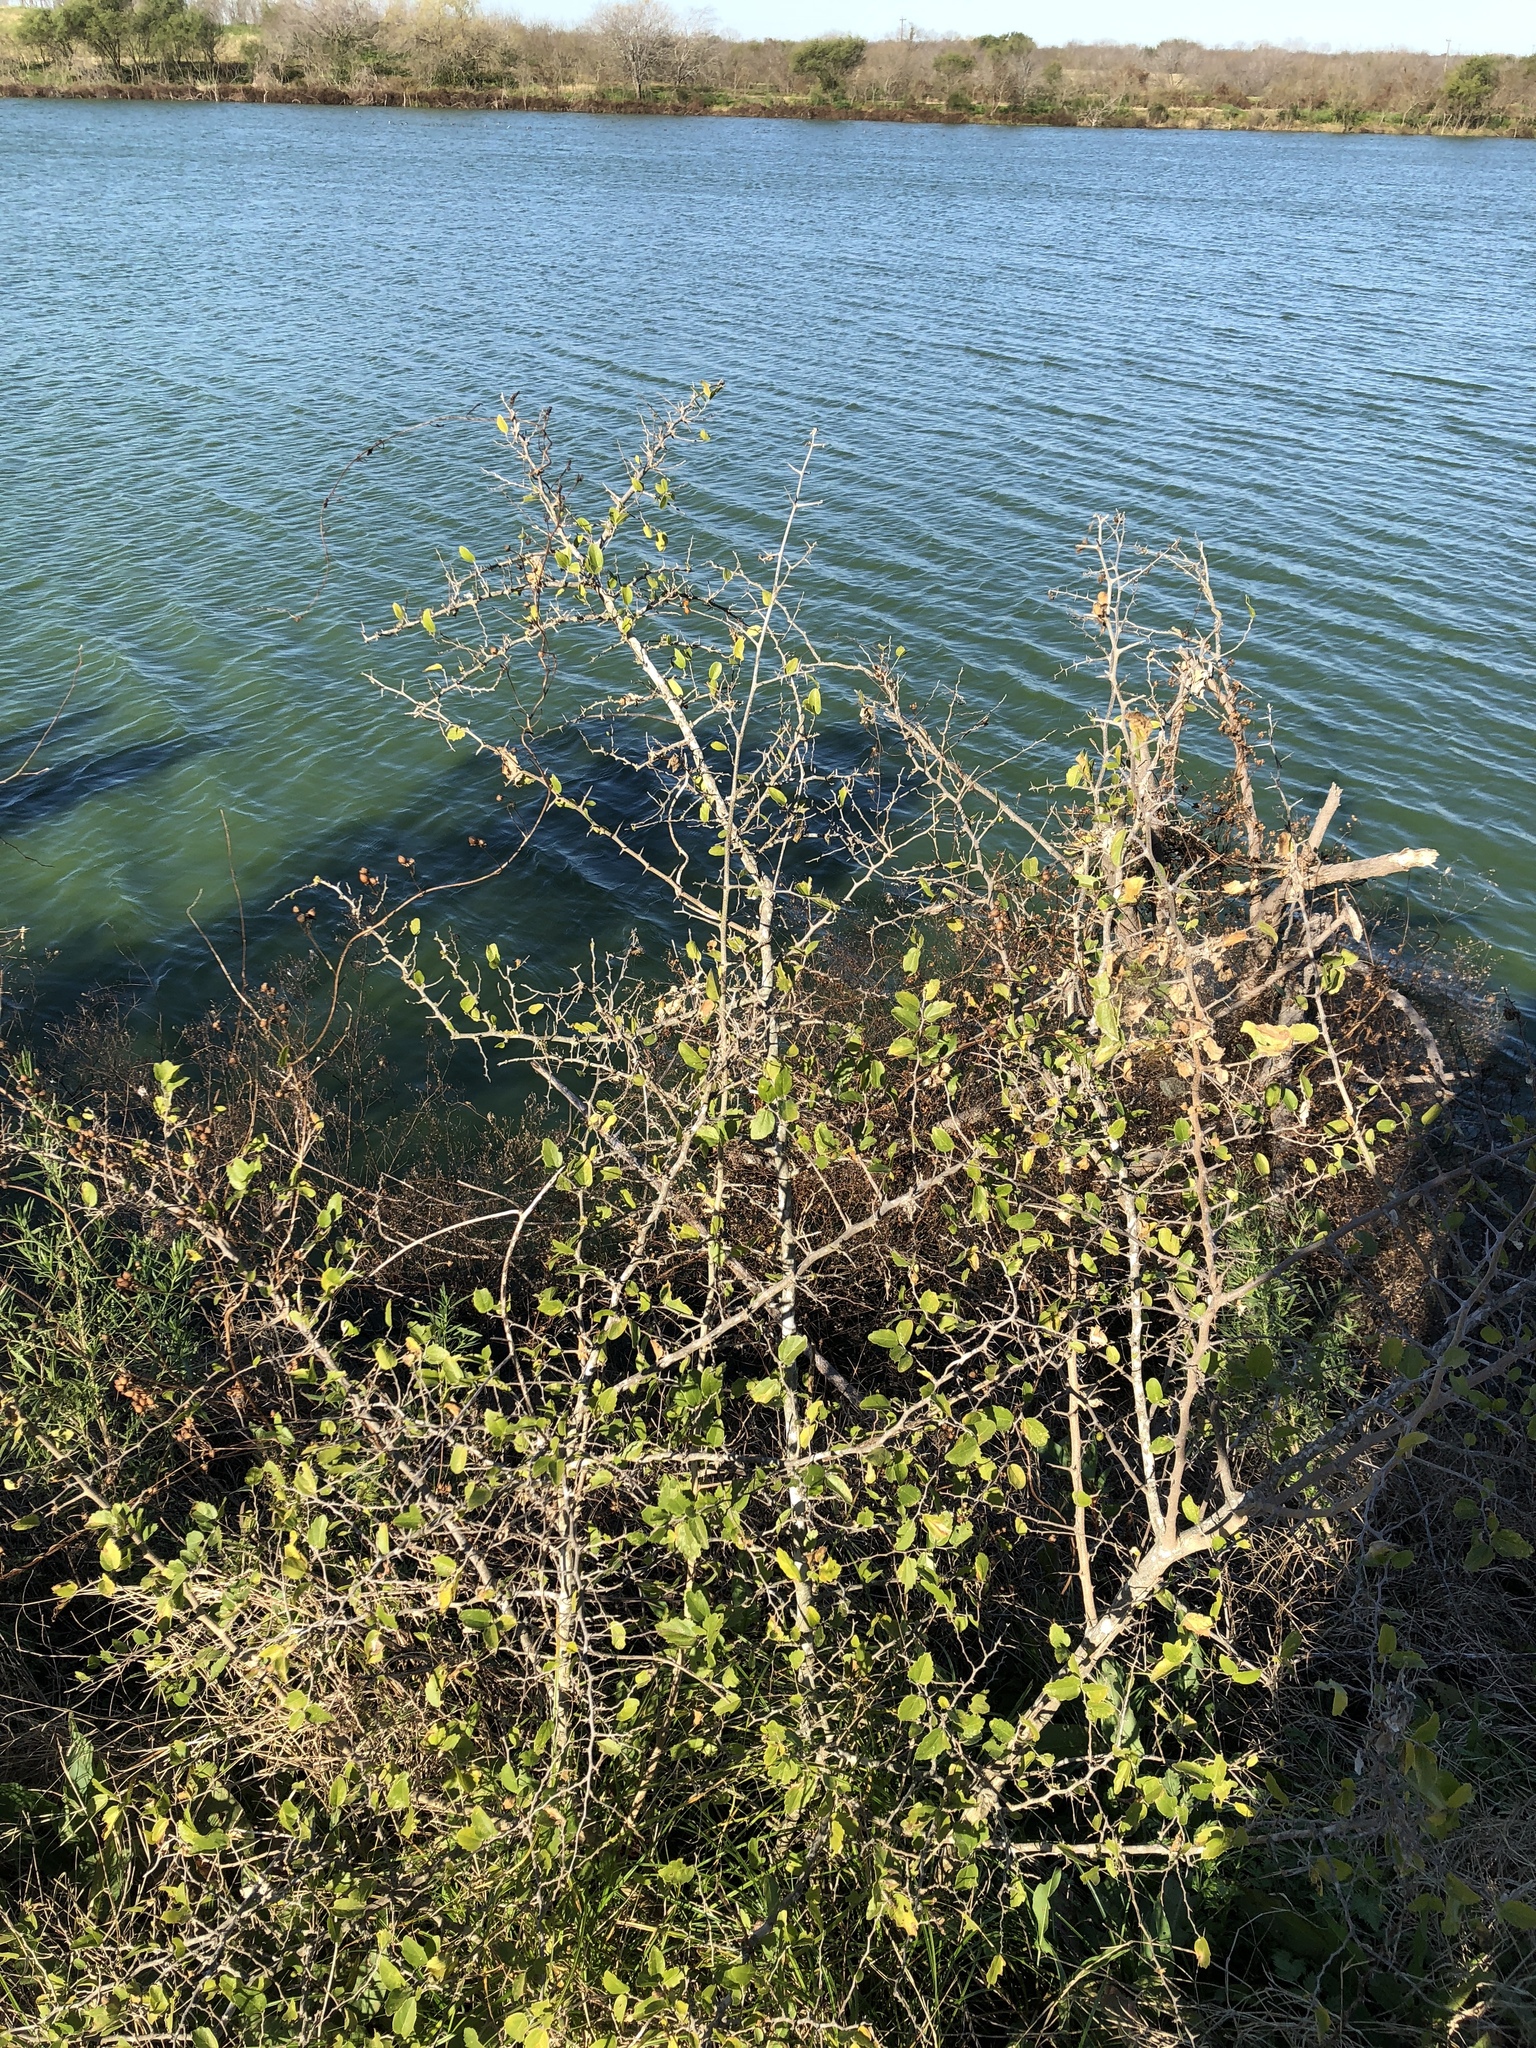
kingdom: Plantae
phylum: Tracheophyta
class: Magnoliopsida
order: Rosales
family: Cannabaceae
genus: Celtis
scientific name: Celtis pallida
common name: Desert hackberry
